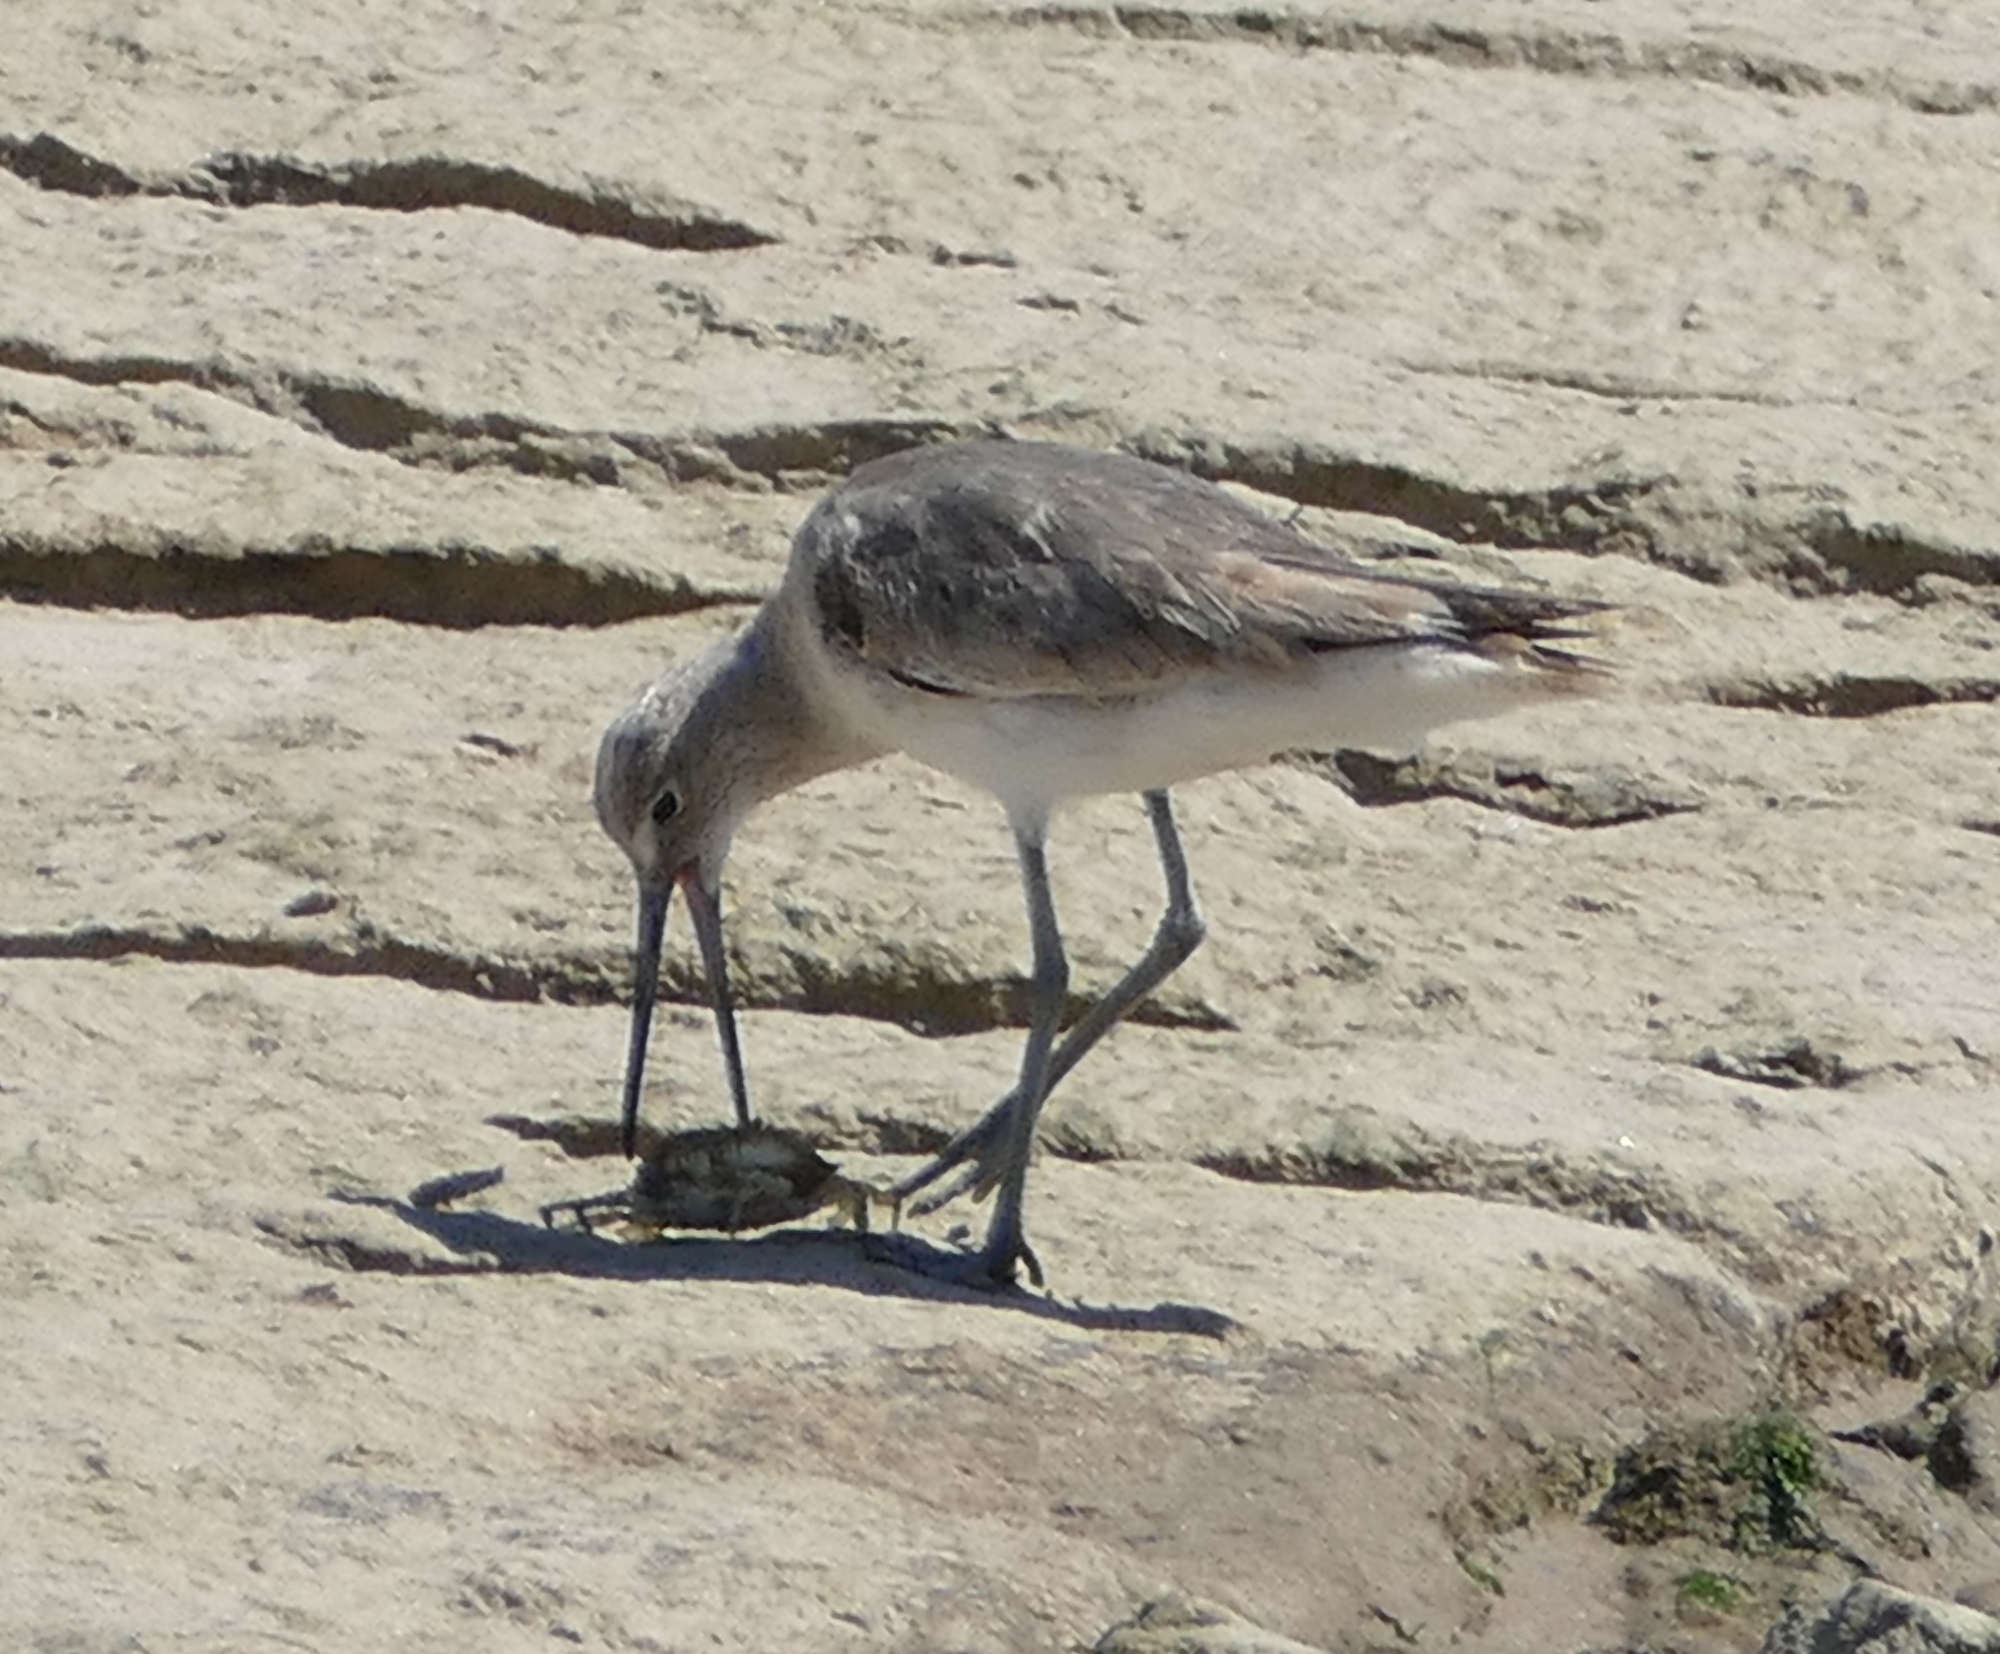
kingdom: Animalia
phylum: Chordata
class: Aves
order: Charadriiformes
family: Scolopacidae
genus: Tringa
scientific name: Tringa semipalmata
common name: Willet
